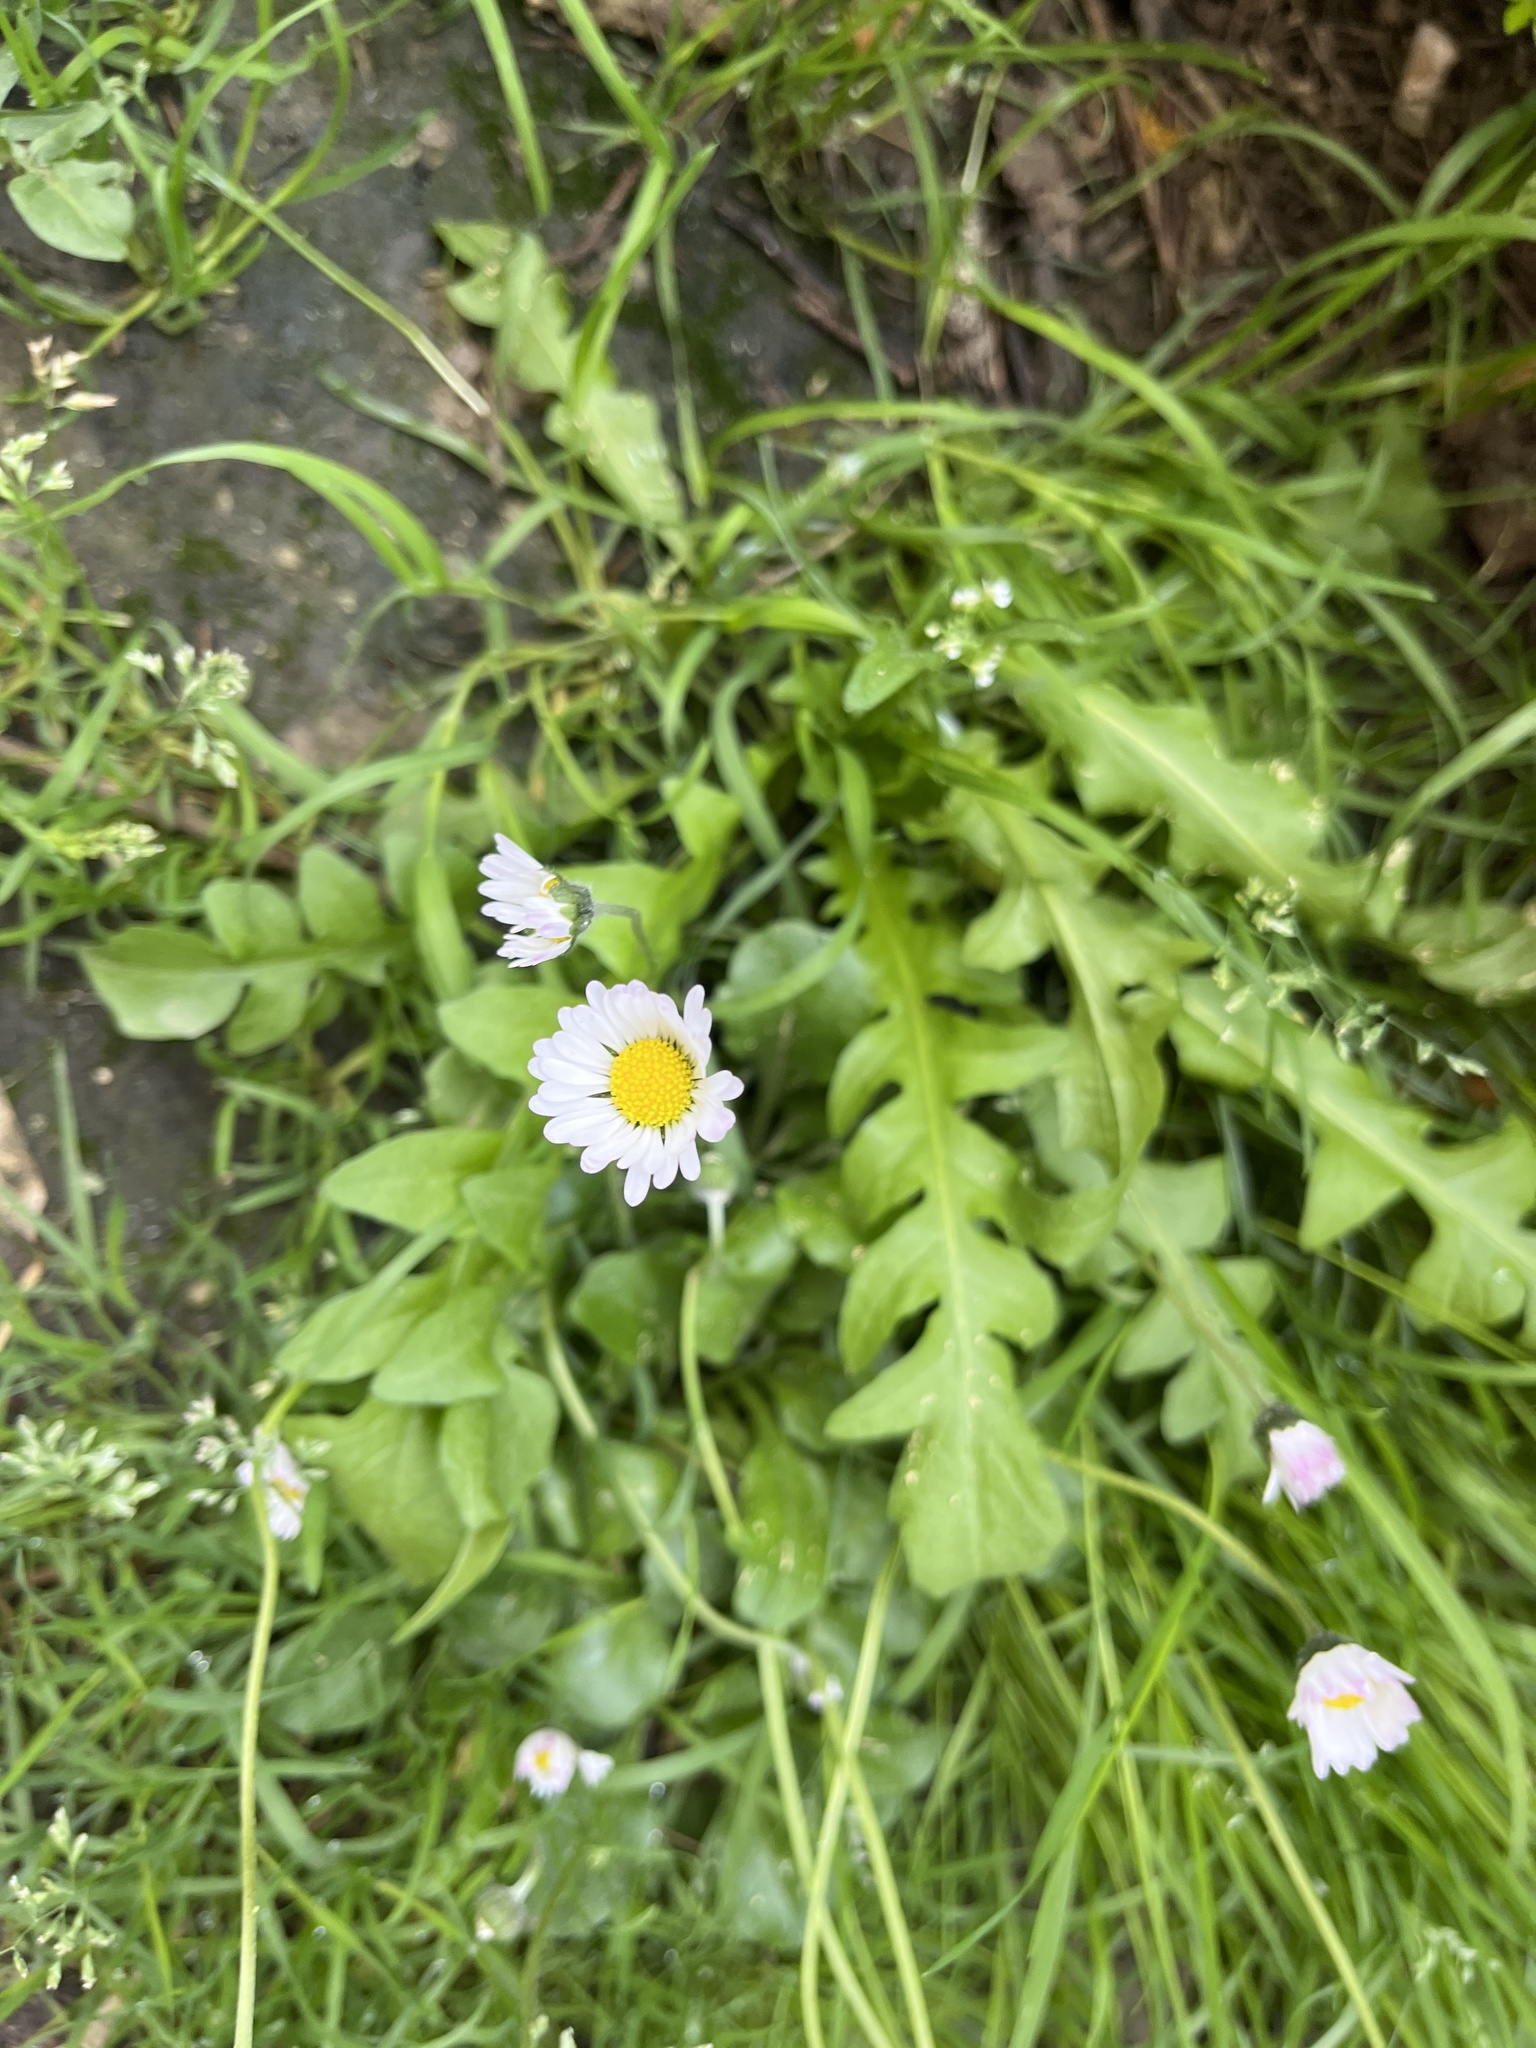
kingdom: Plantae
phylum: Tracheophyta
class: Magnoliopsida
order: Asterales
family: Asteraceae
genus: Bellis
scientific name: Bellis perennis
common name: Lawndaisy
